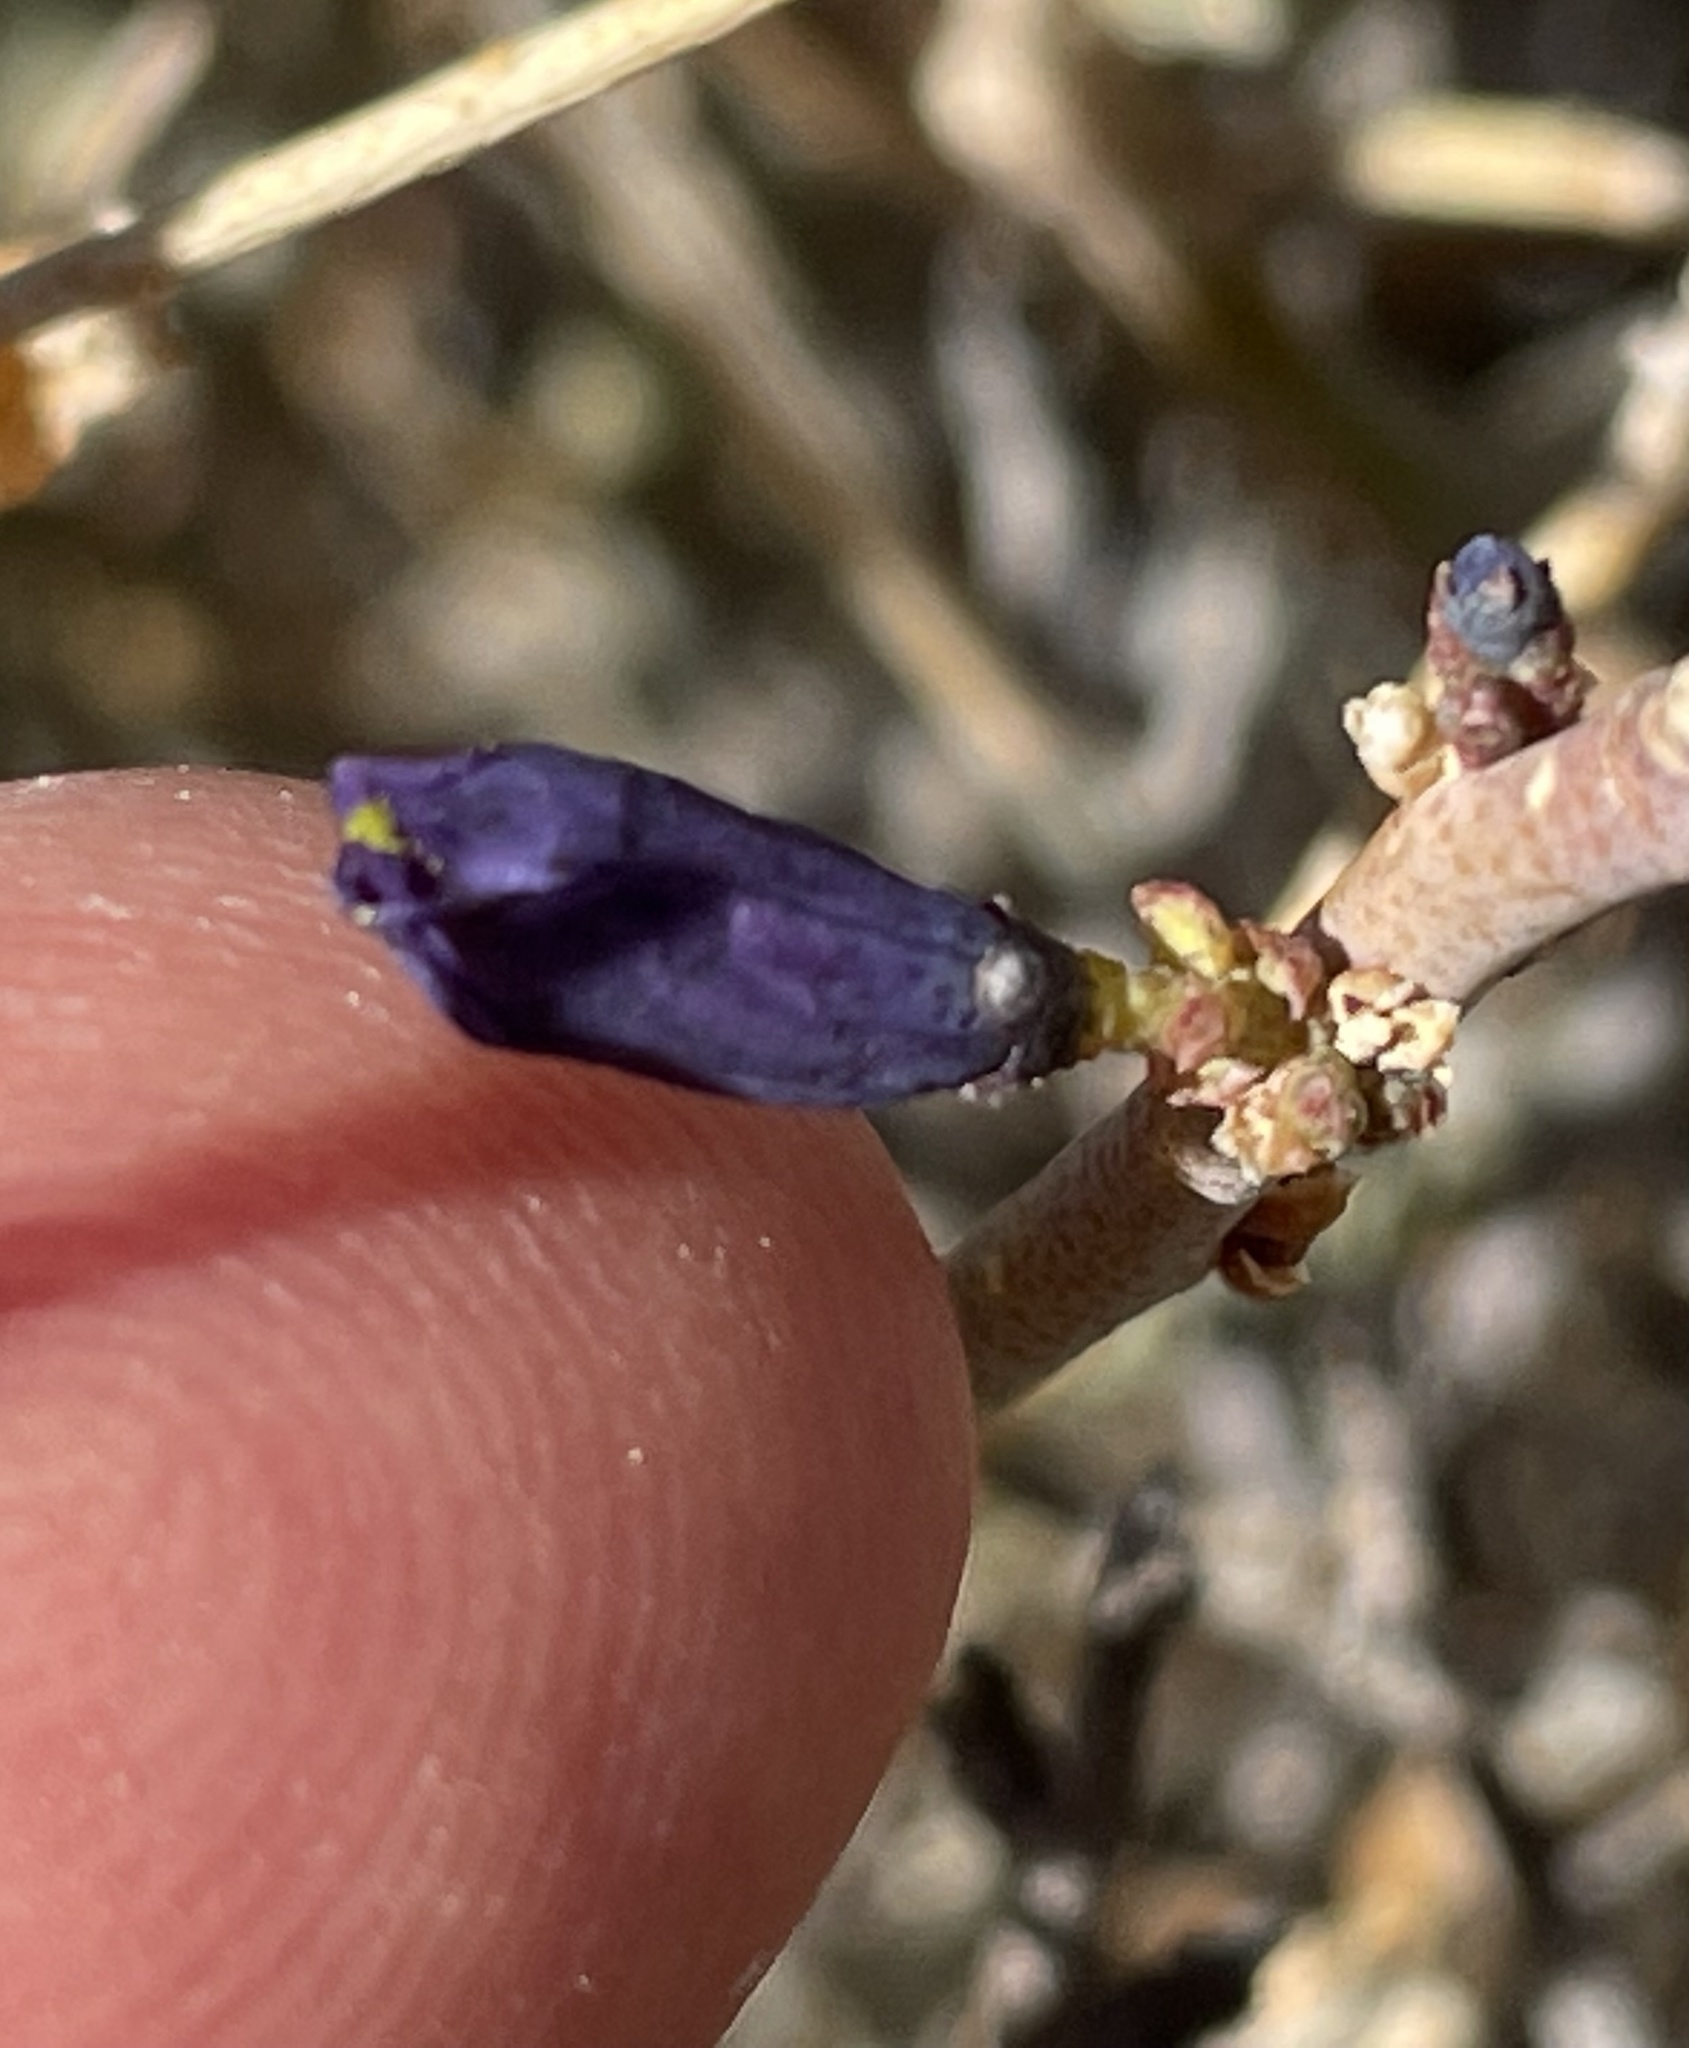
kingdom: Plantae
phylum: Tracheophyta
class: Magnoliopsida
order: Sapindales
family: Rutaceae
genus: Thamnosma
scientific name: Thamnosma montana
